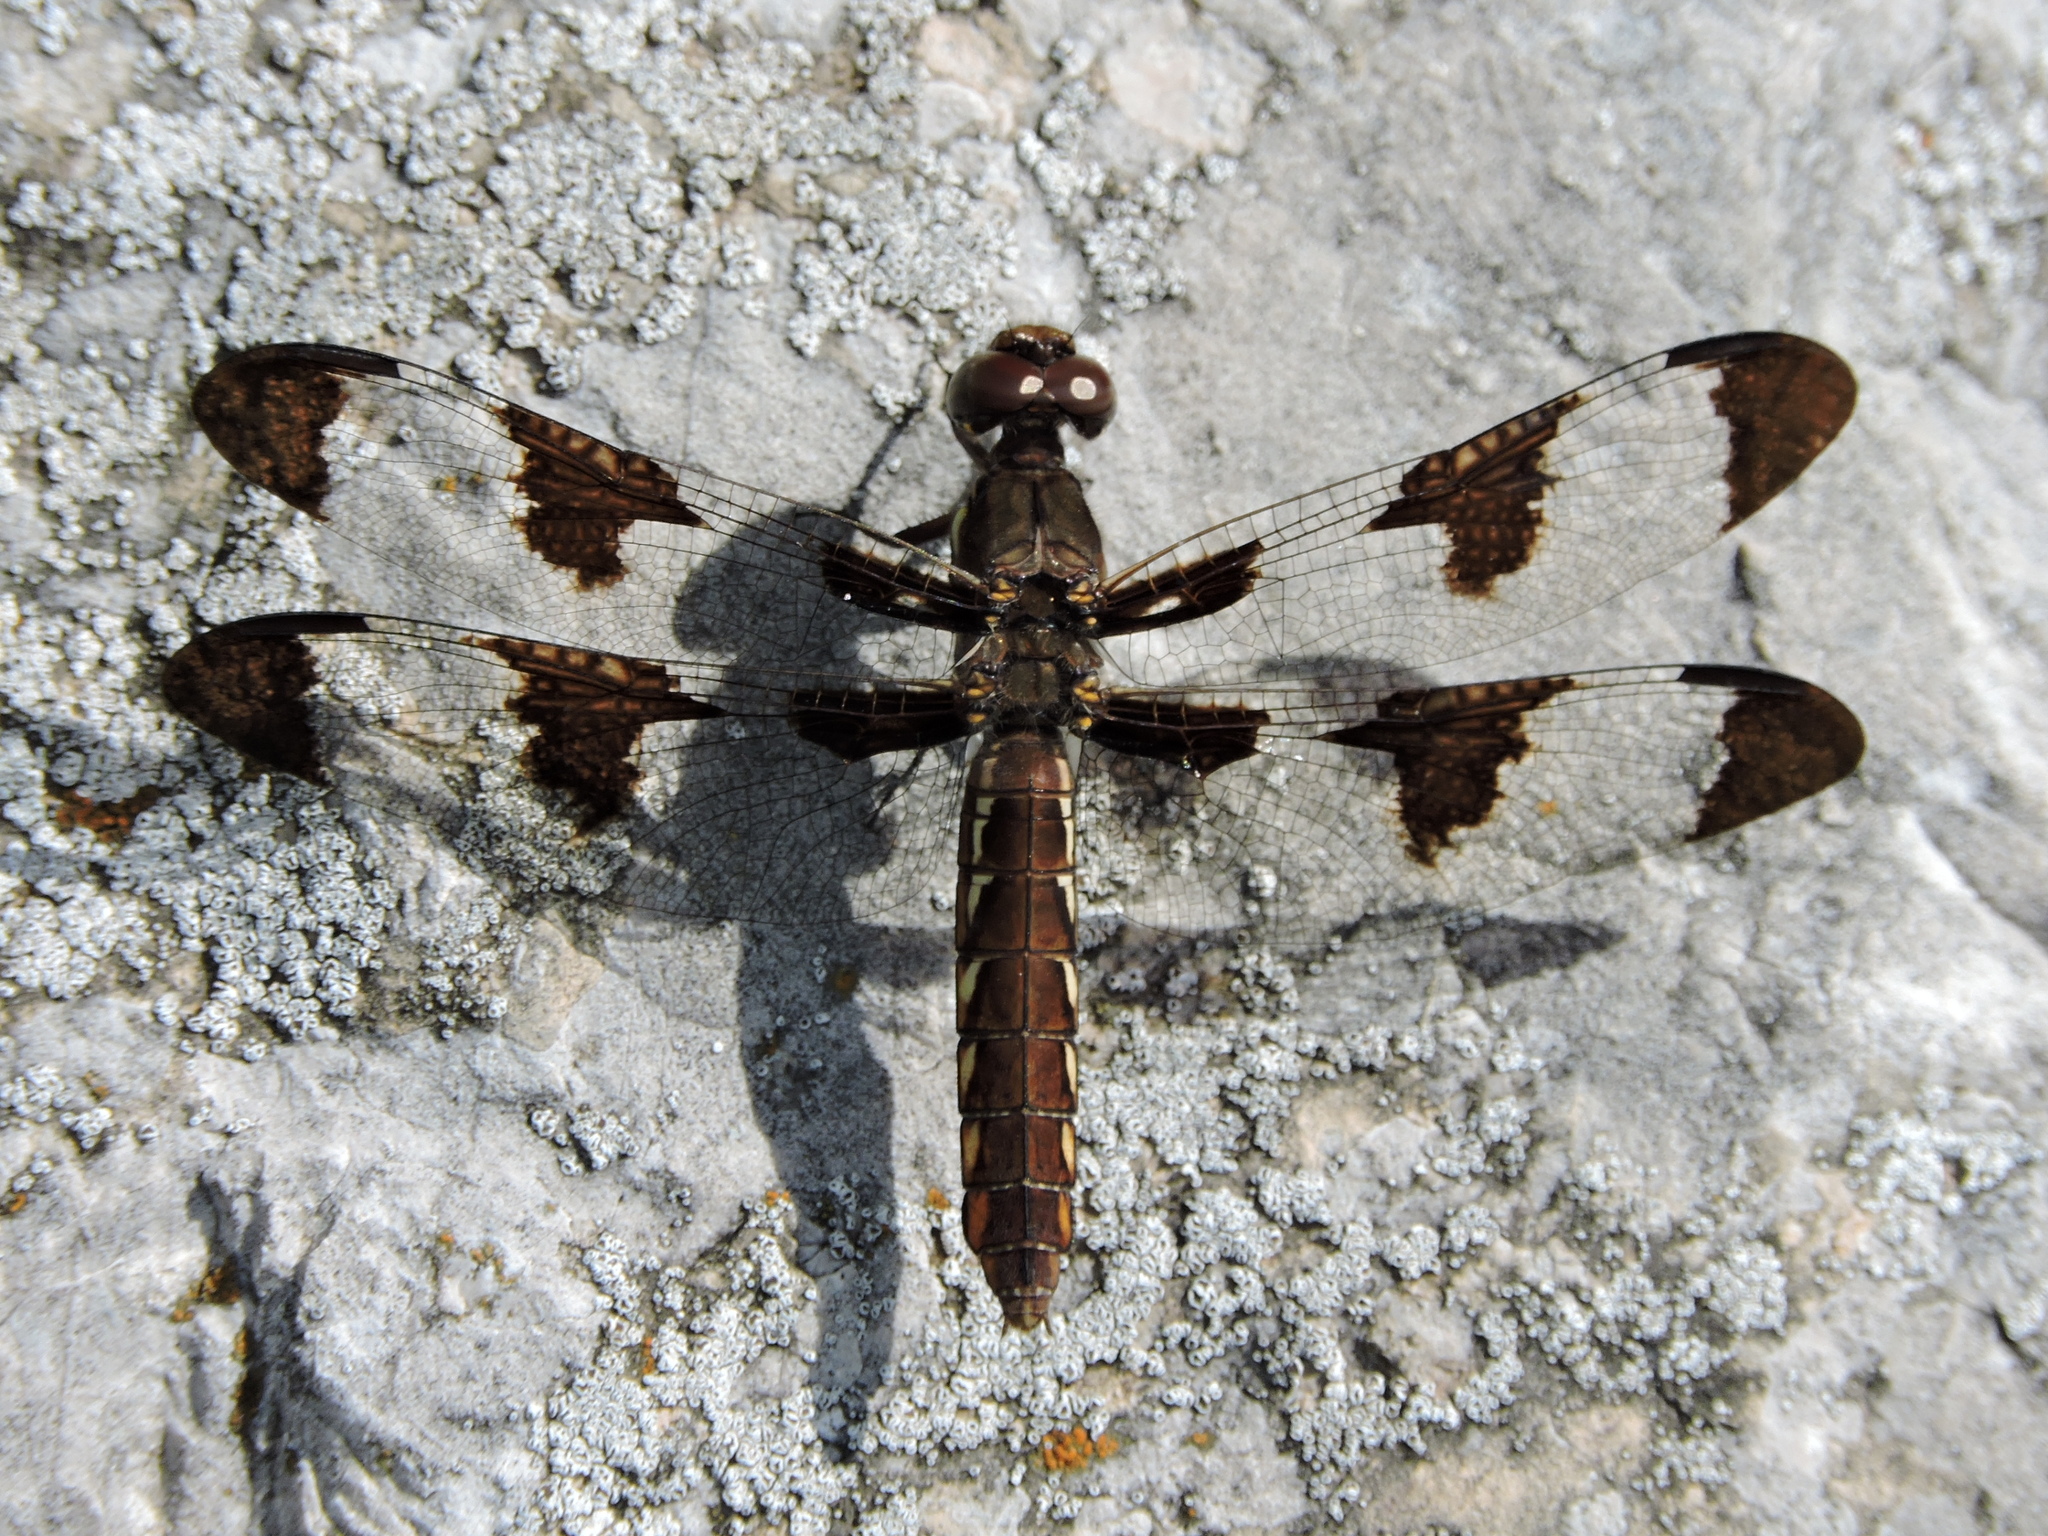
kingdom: Animalia
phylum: Arthropoda
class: Insecta
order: Odonata
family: Libellulidae
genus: Plathemis
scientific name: Plathemis lydia
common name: Common whitetail
